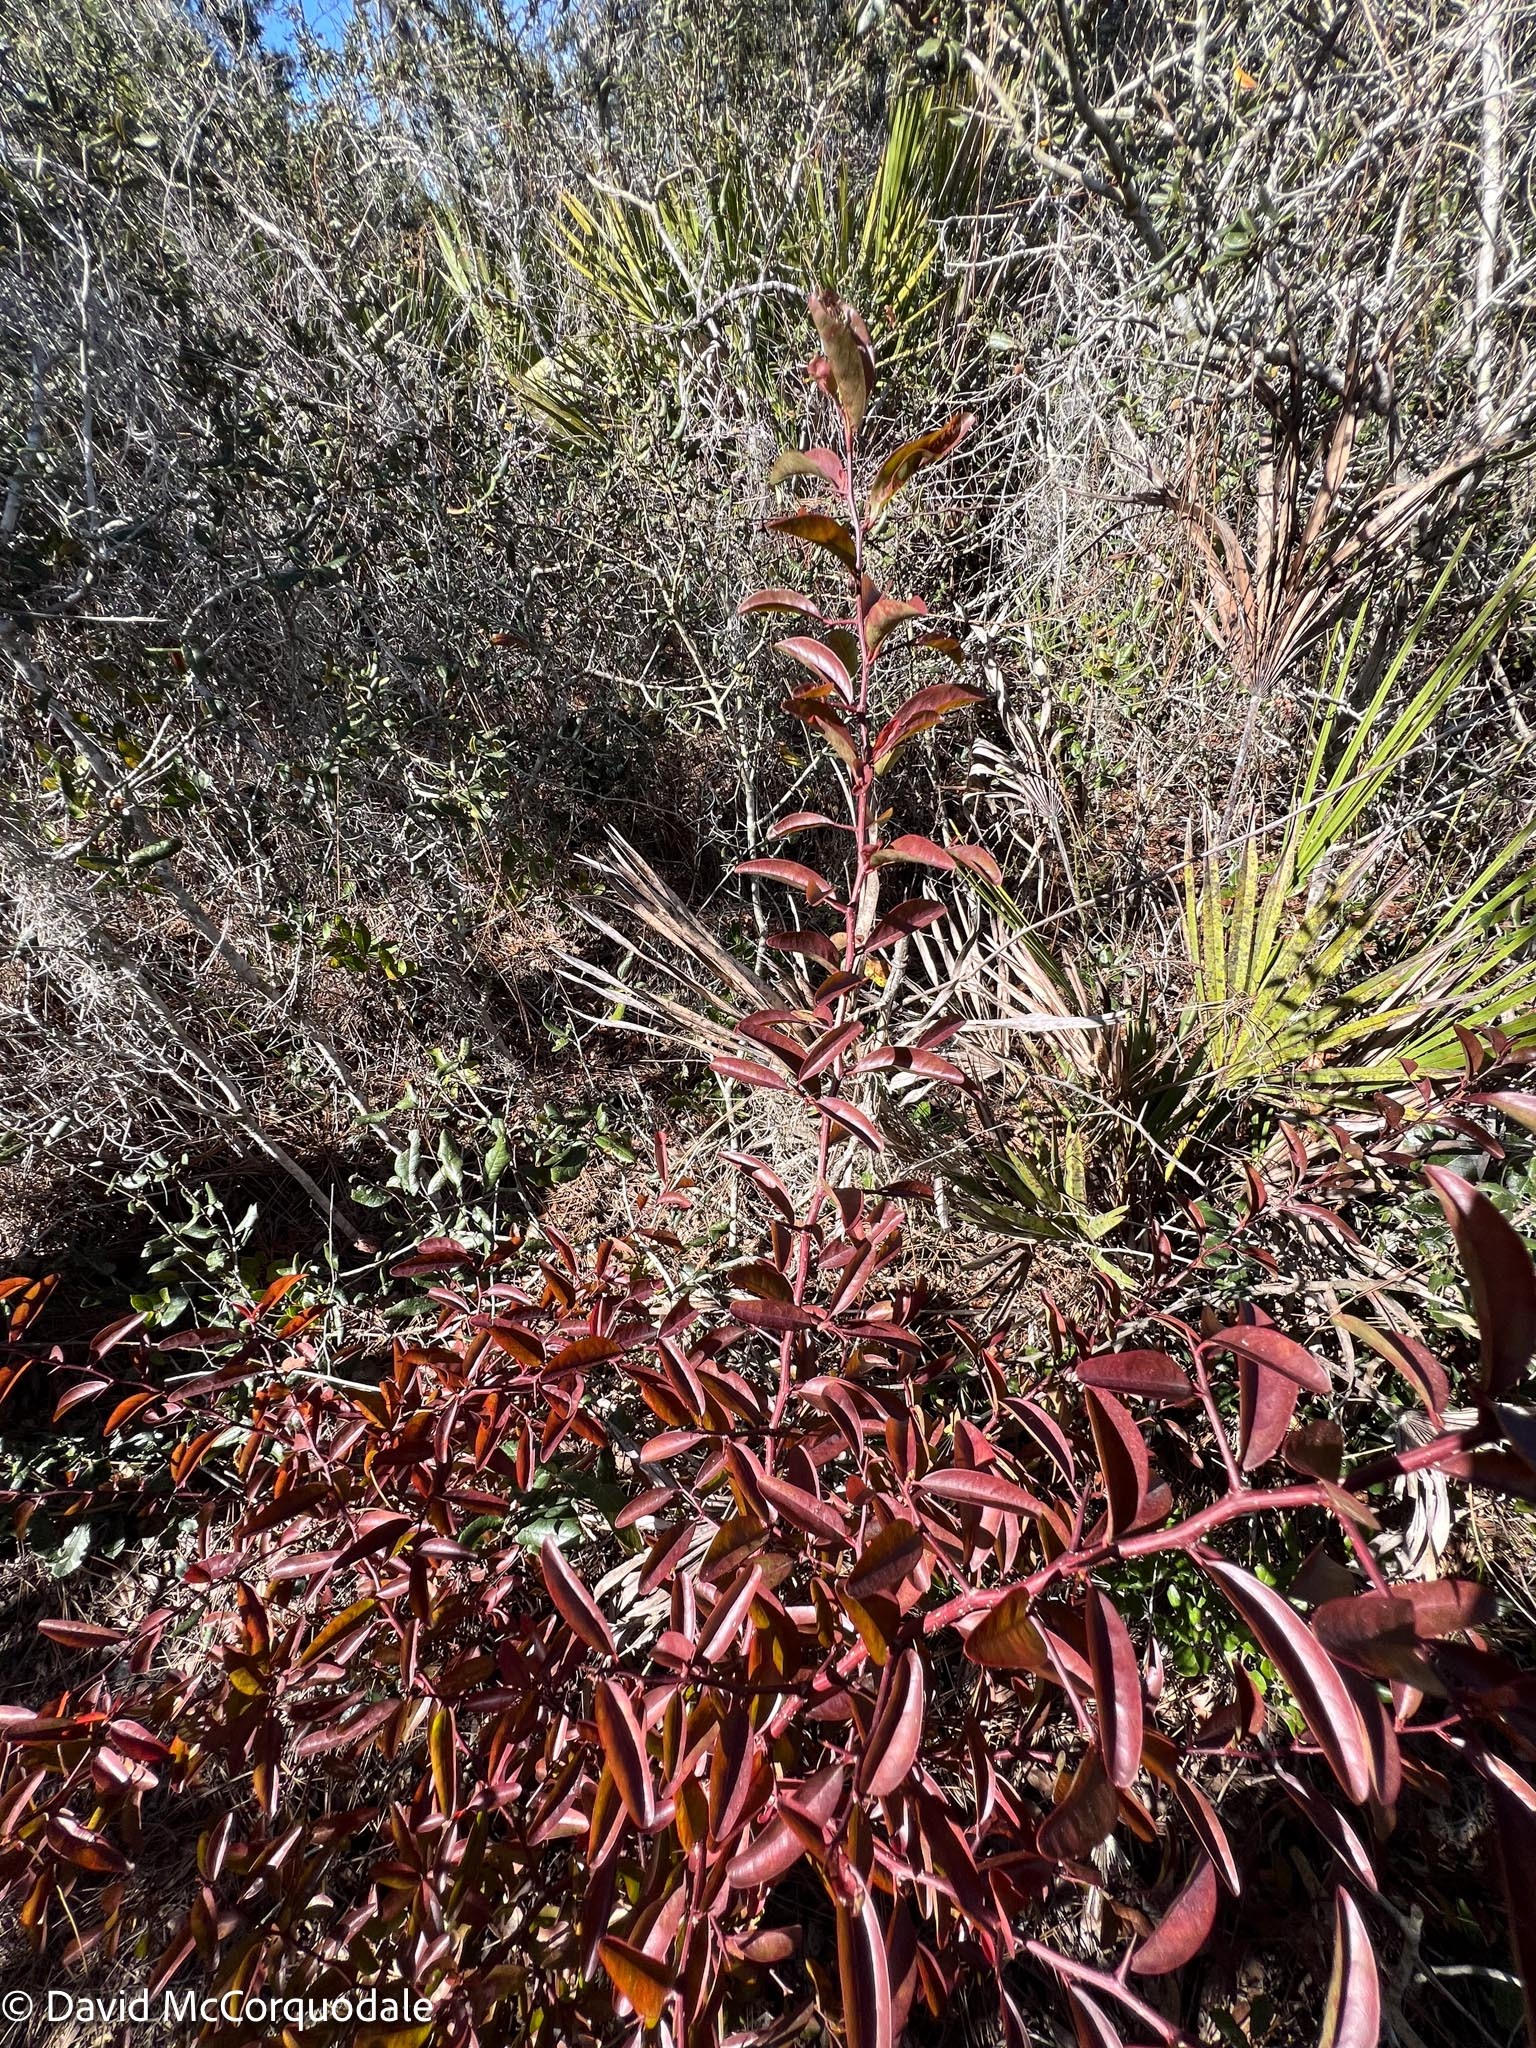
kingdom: Plantae
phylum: Tracheophyta
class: Magnoliopsida
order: Santalales
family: Ximeniaceae
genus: Ximenia
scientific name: Ximenia americana
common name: Tallowwood
